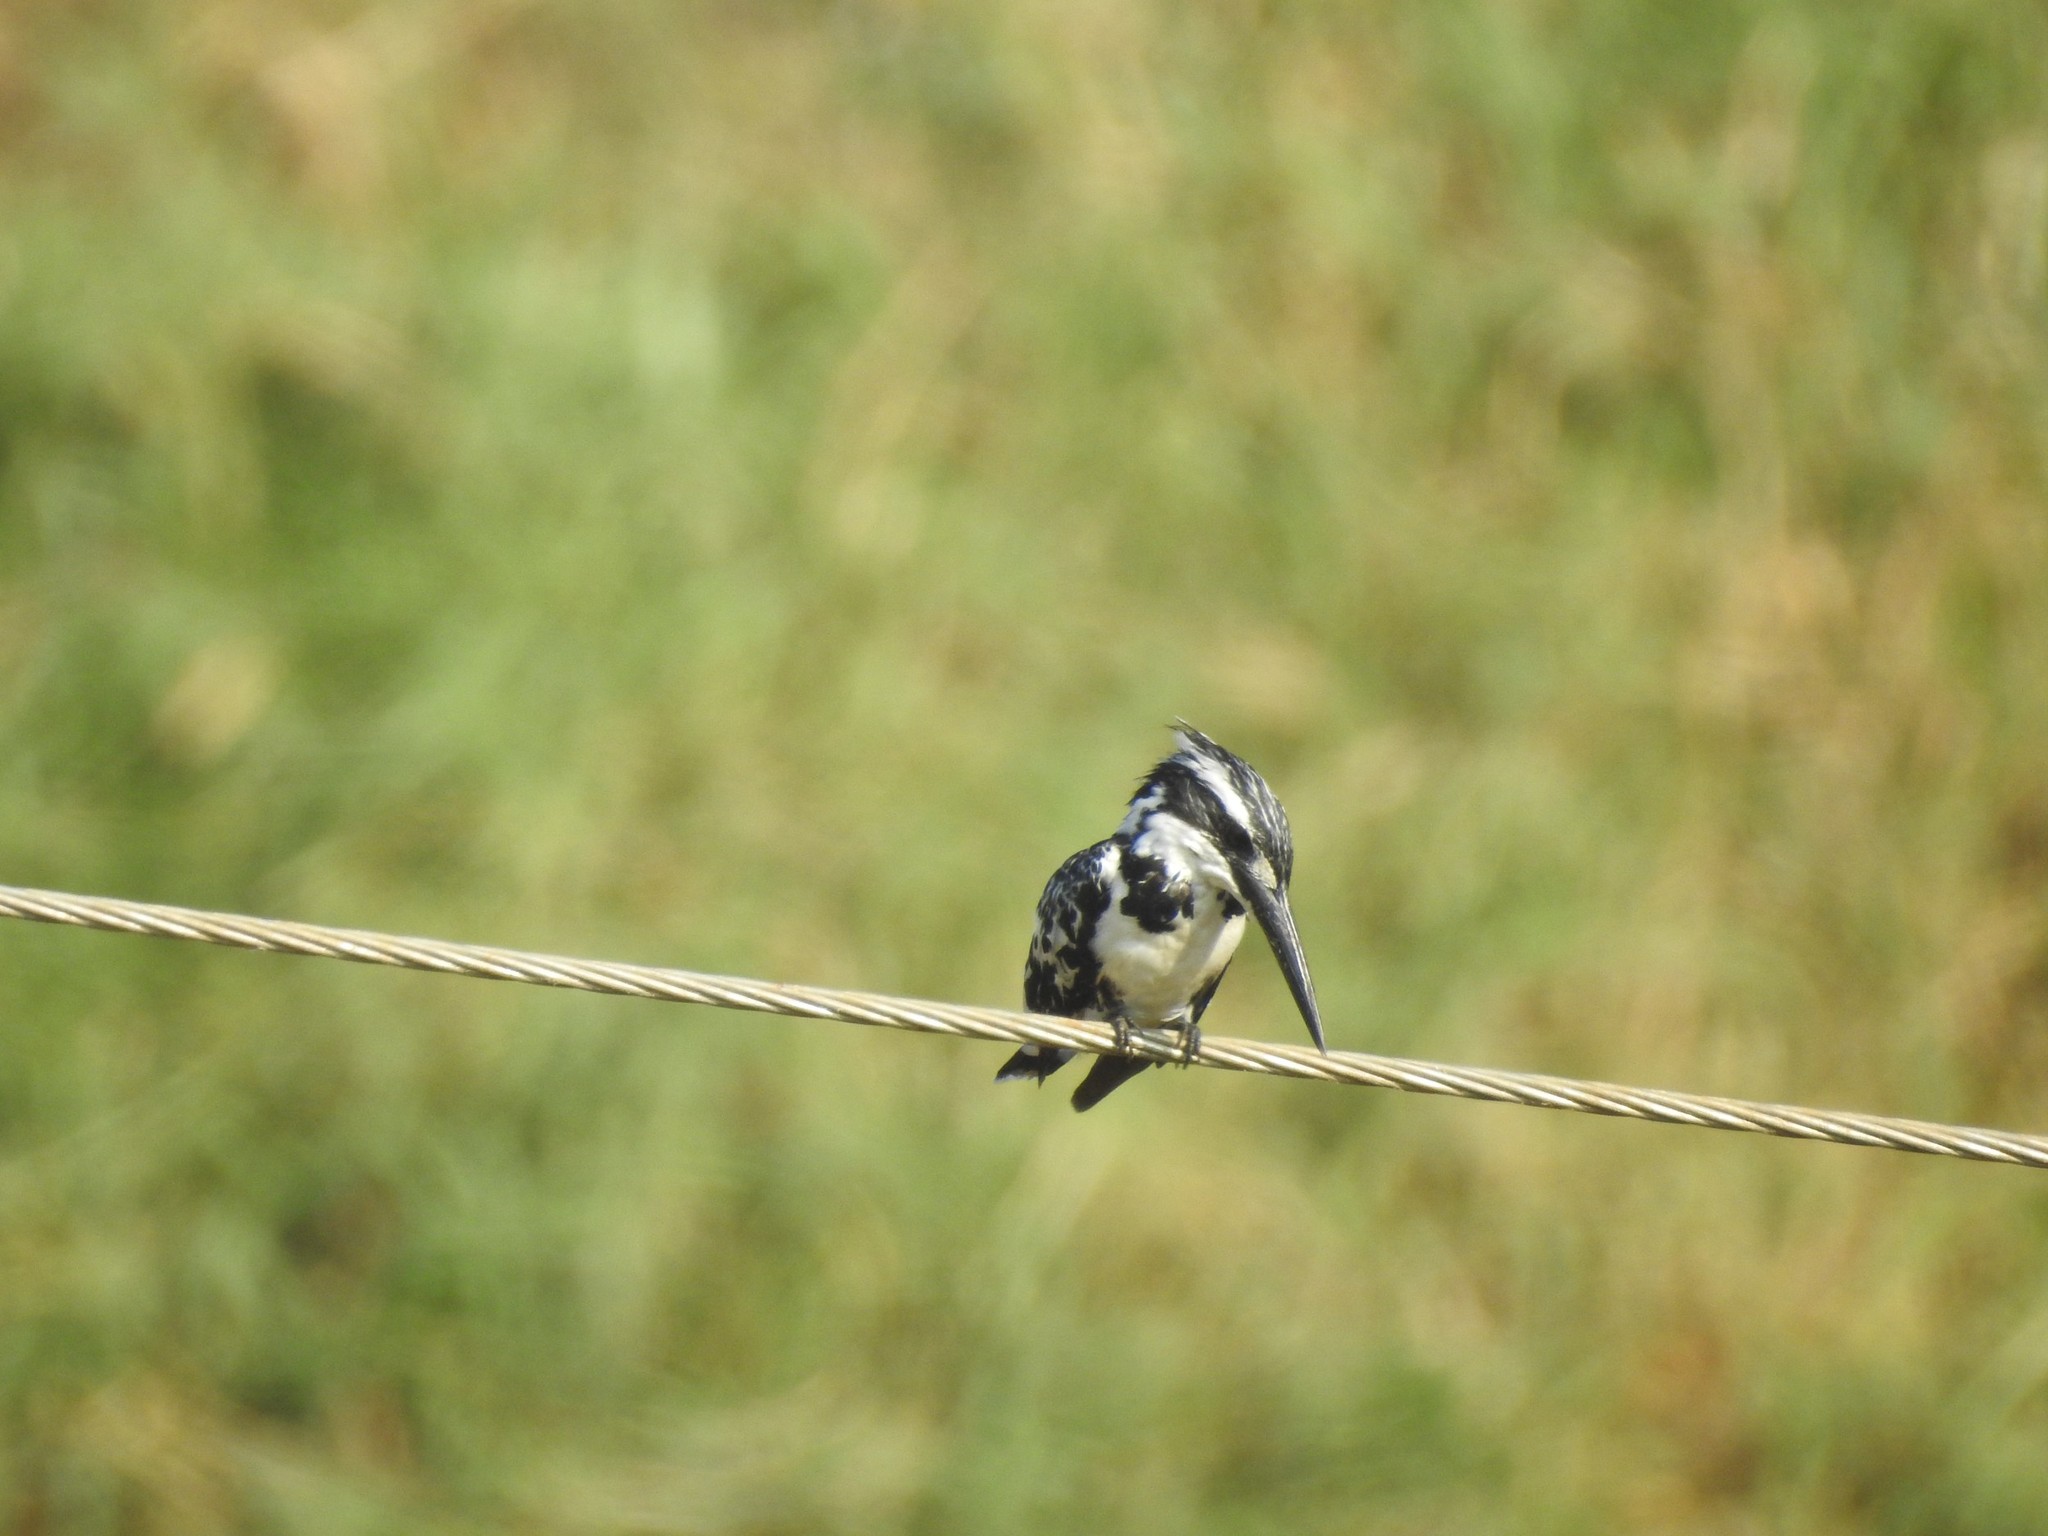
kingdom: Animalia
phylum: Chordata
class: Aves
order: Coraciiformes
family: Alcedinidae
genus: Ceryle
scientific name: Ceryle rudis
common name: Pied kingfisher
